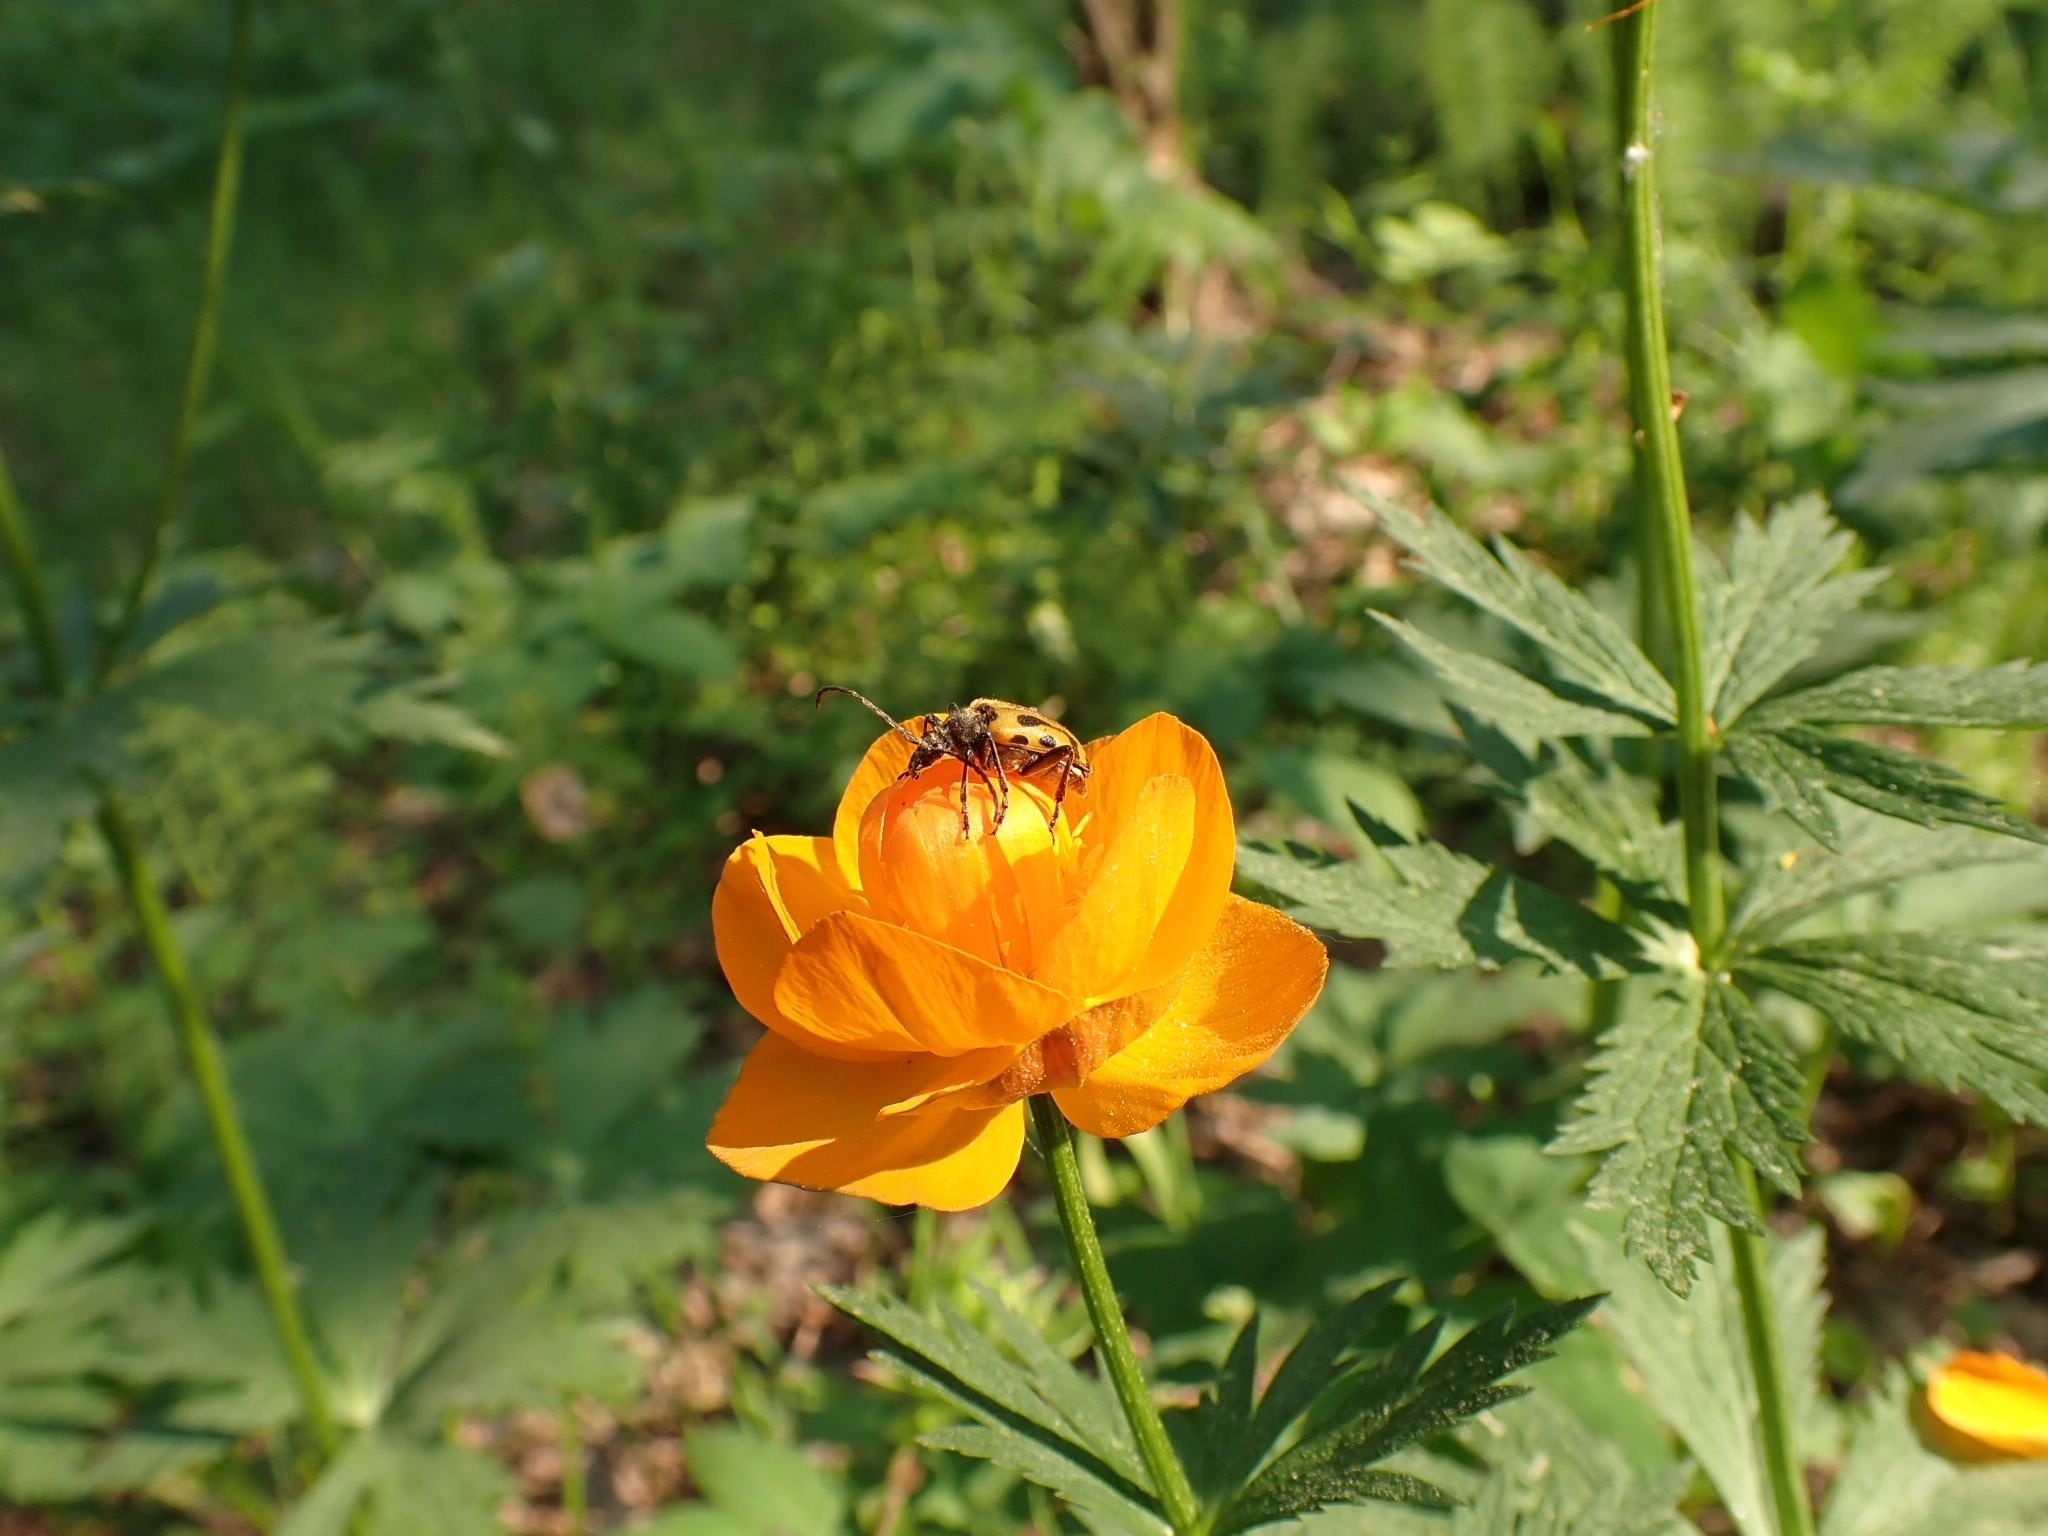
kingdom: Animalia
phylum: Arthropoda
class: Insecta
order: Coleoptera
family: Cerambycidae
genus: Brachyta
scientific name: Brachyta interrogationis
